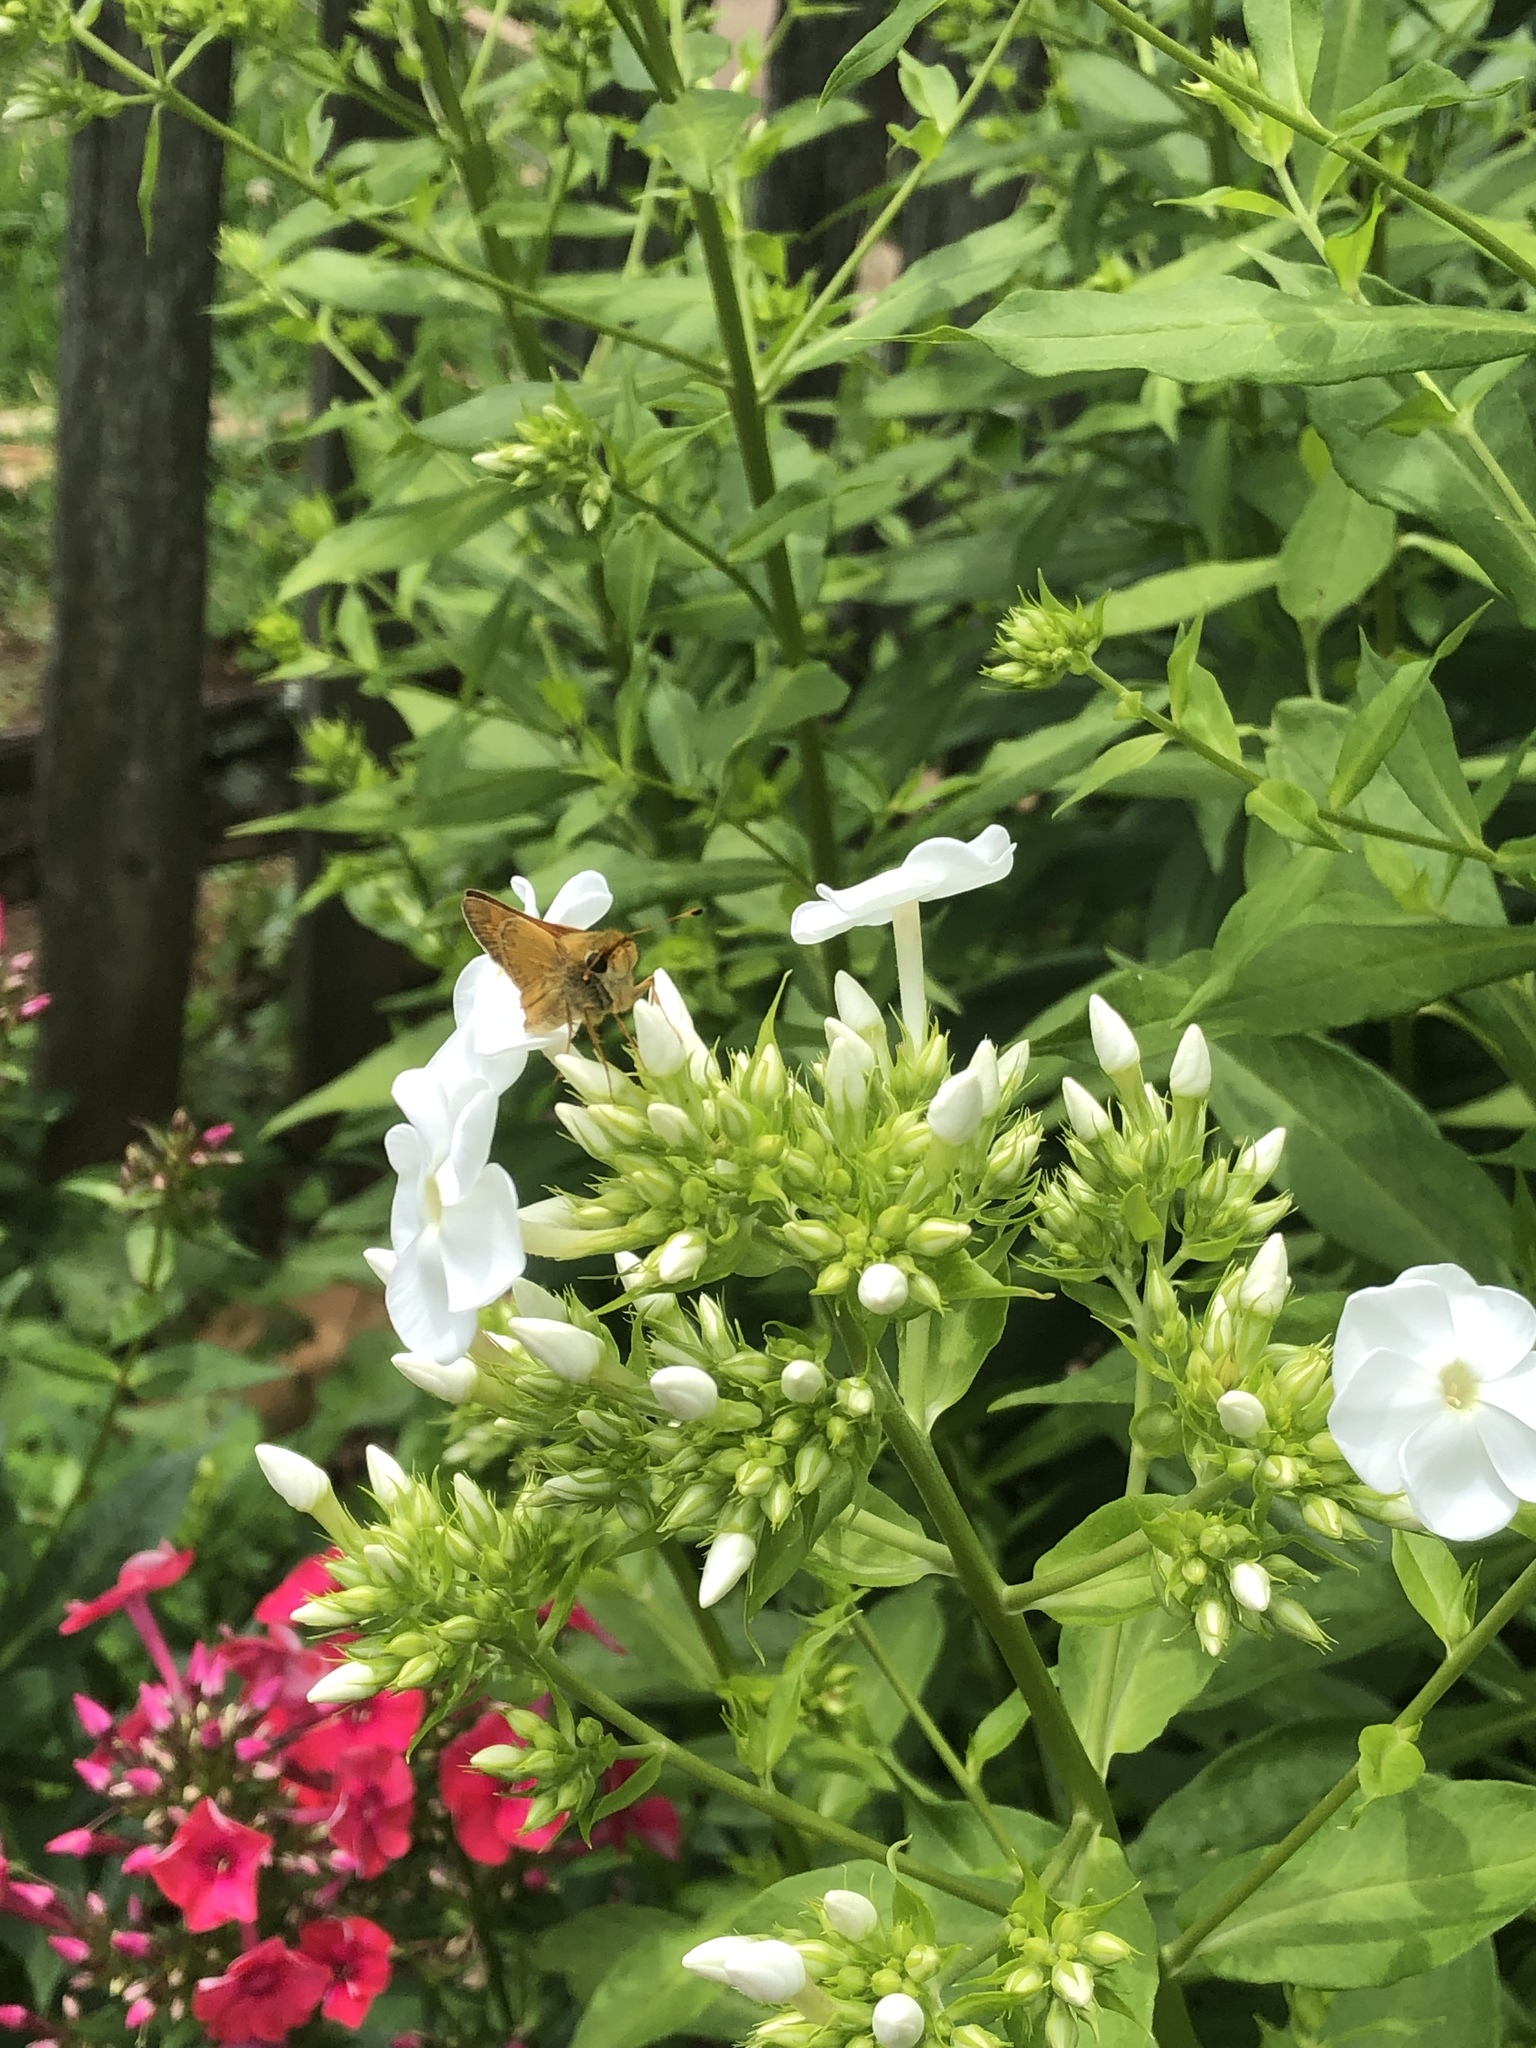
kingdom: Animalia
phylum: Arthropoda
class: Insecta
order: Lepidoptera
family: Hesperiidae
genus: Atalopedes
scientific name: Atalopedes
